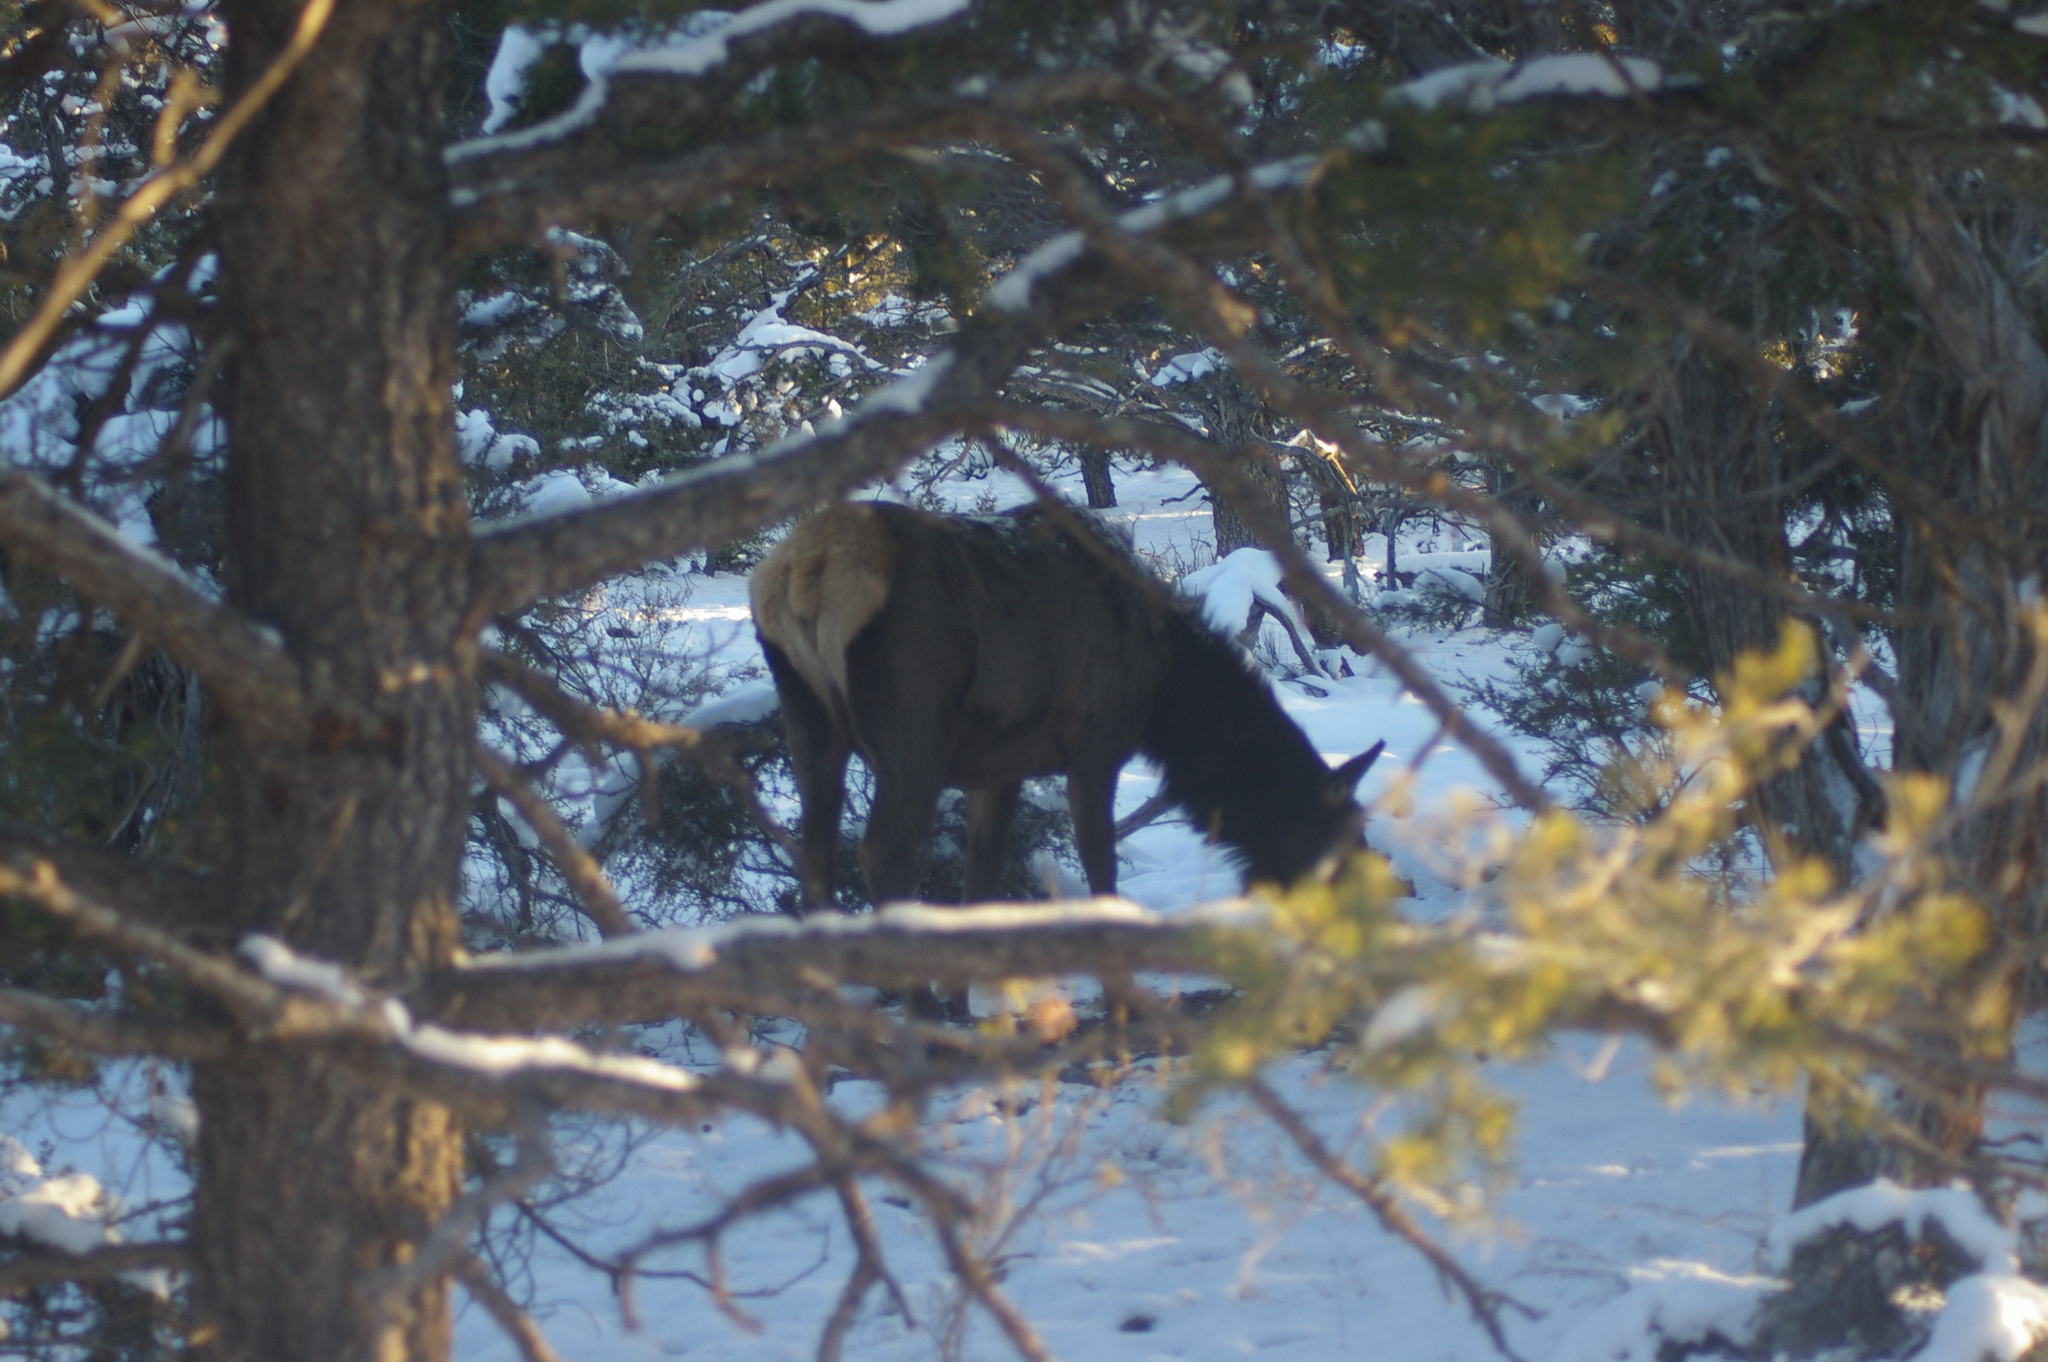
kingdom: Animalia
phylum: Chordata
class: Mammalia
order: Artiodactyla
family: Cervidae
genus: Cervus
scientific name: Cervus elaphus
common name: Red deer
